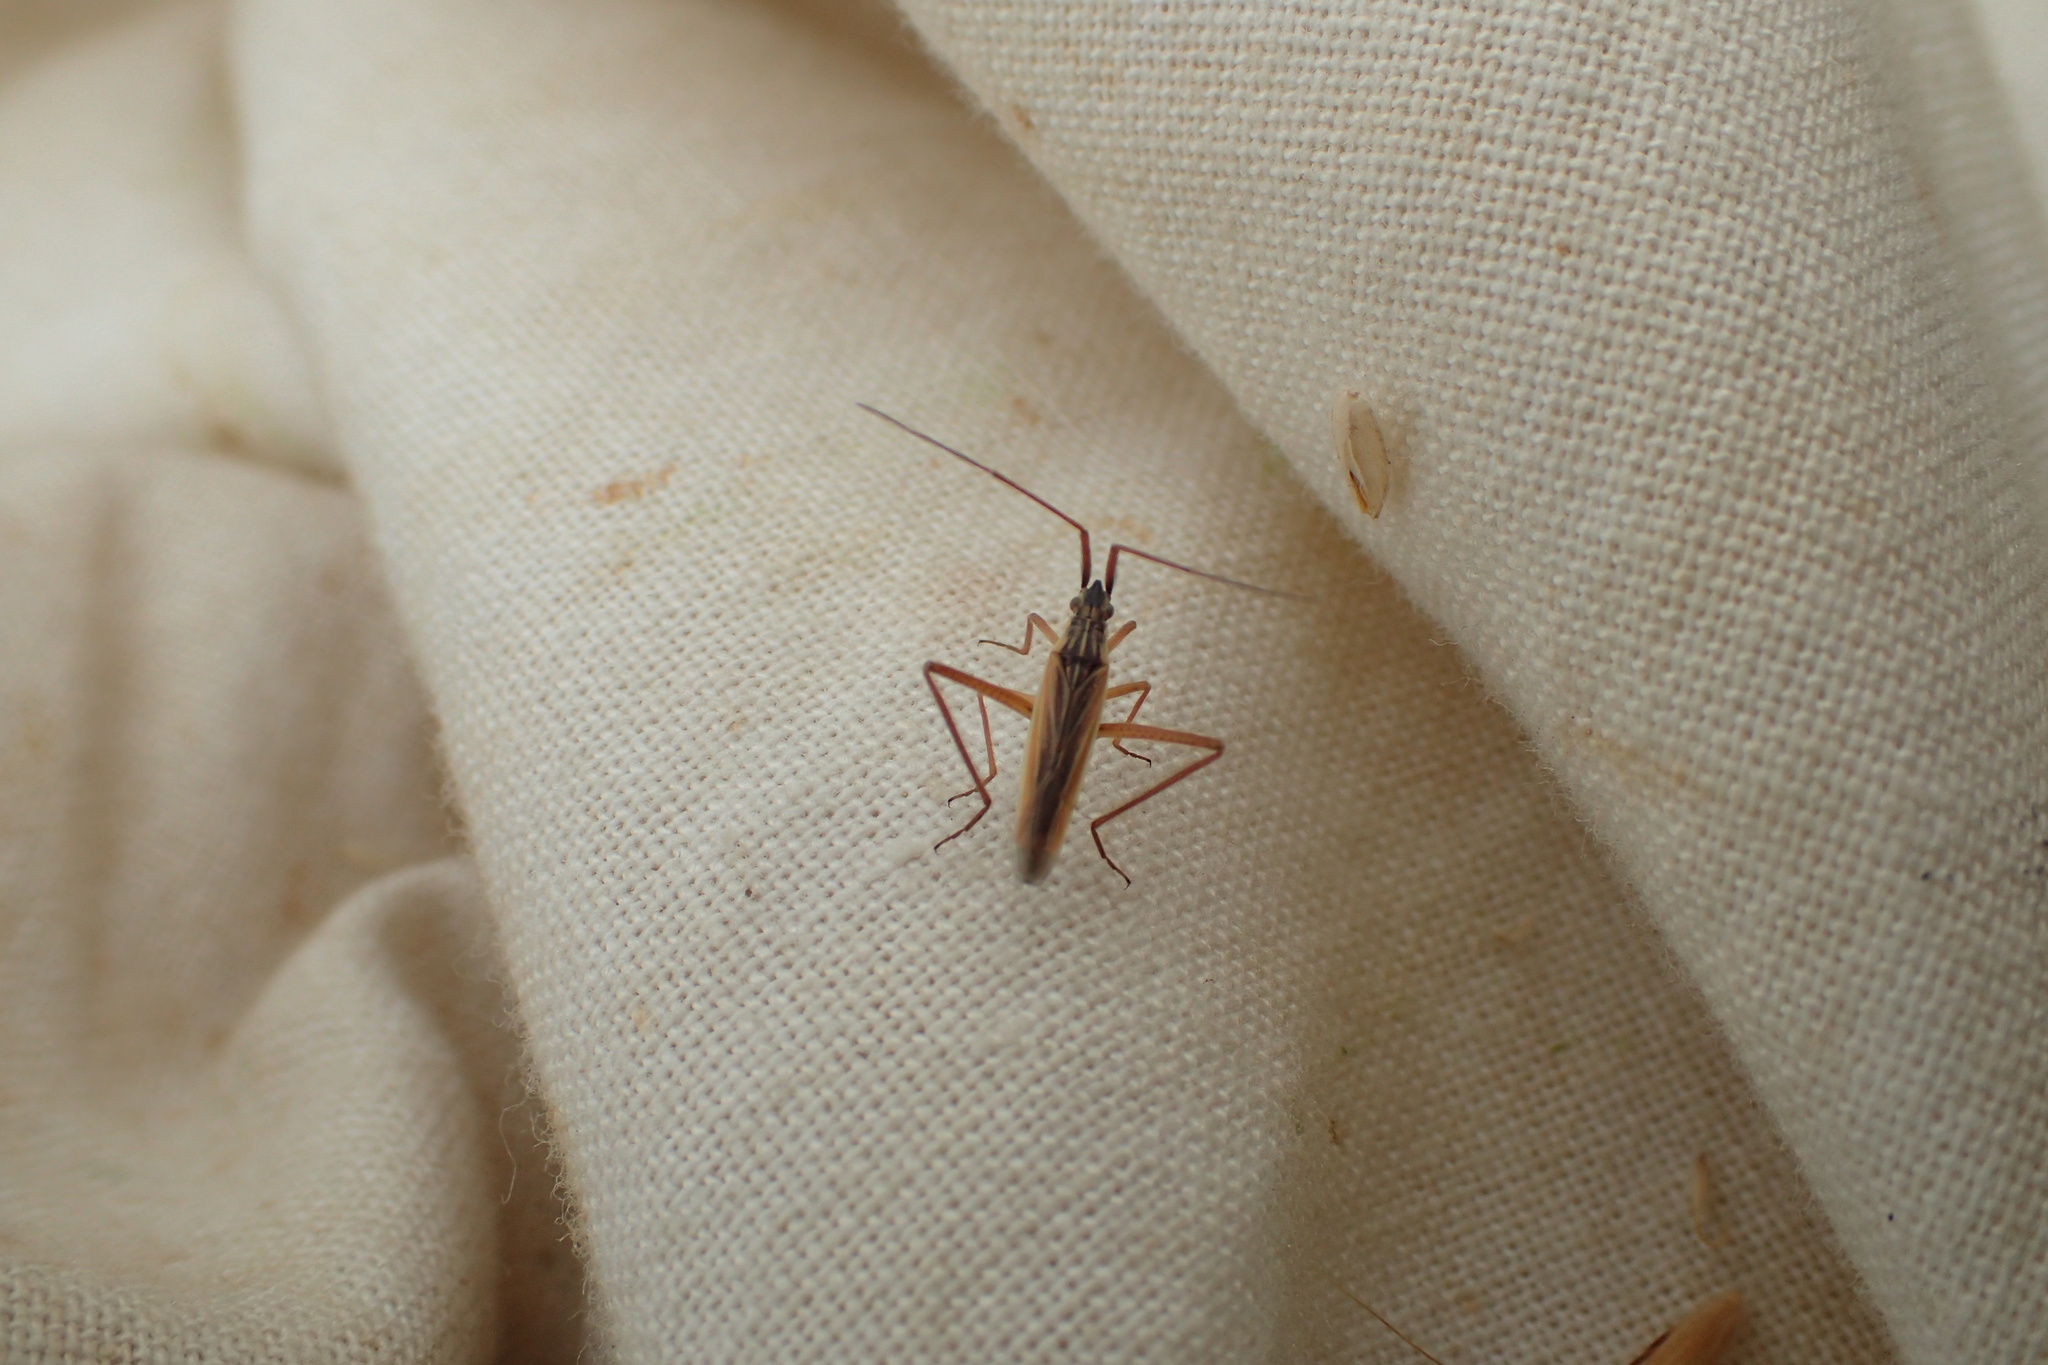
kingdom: Animalia
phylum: Arthropoda
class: Insecta
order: Hemiptera
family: Miridae
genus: Notostira
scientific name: Notostira elongata
